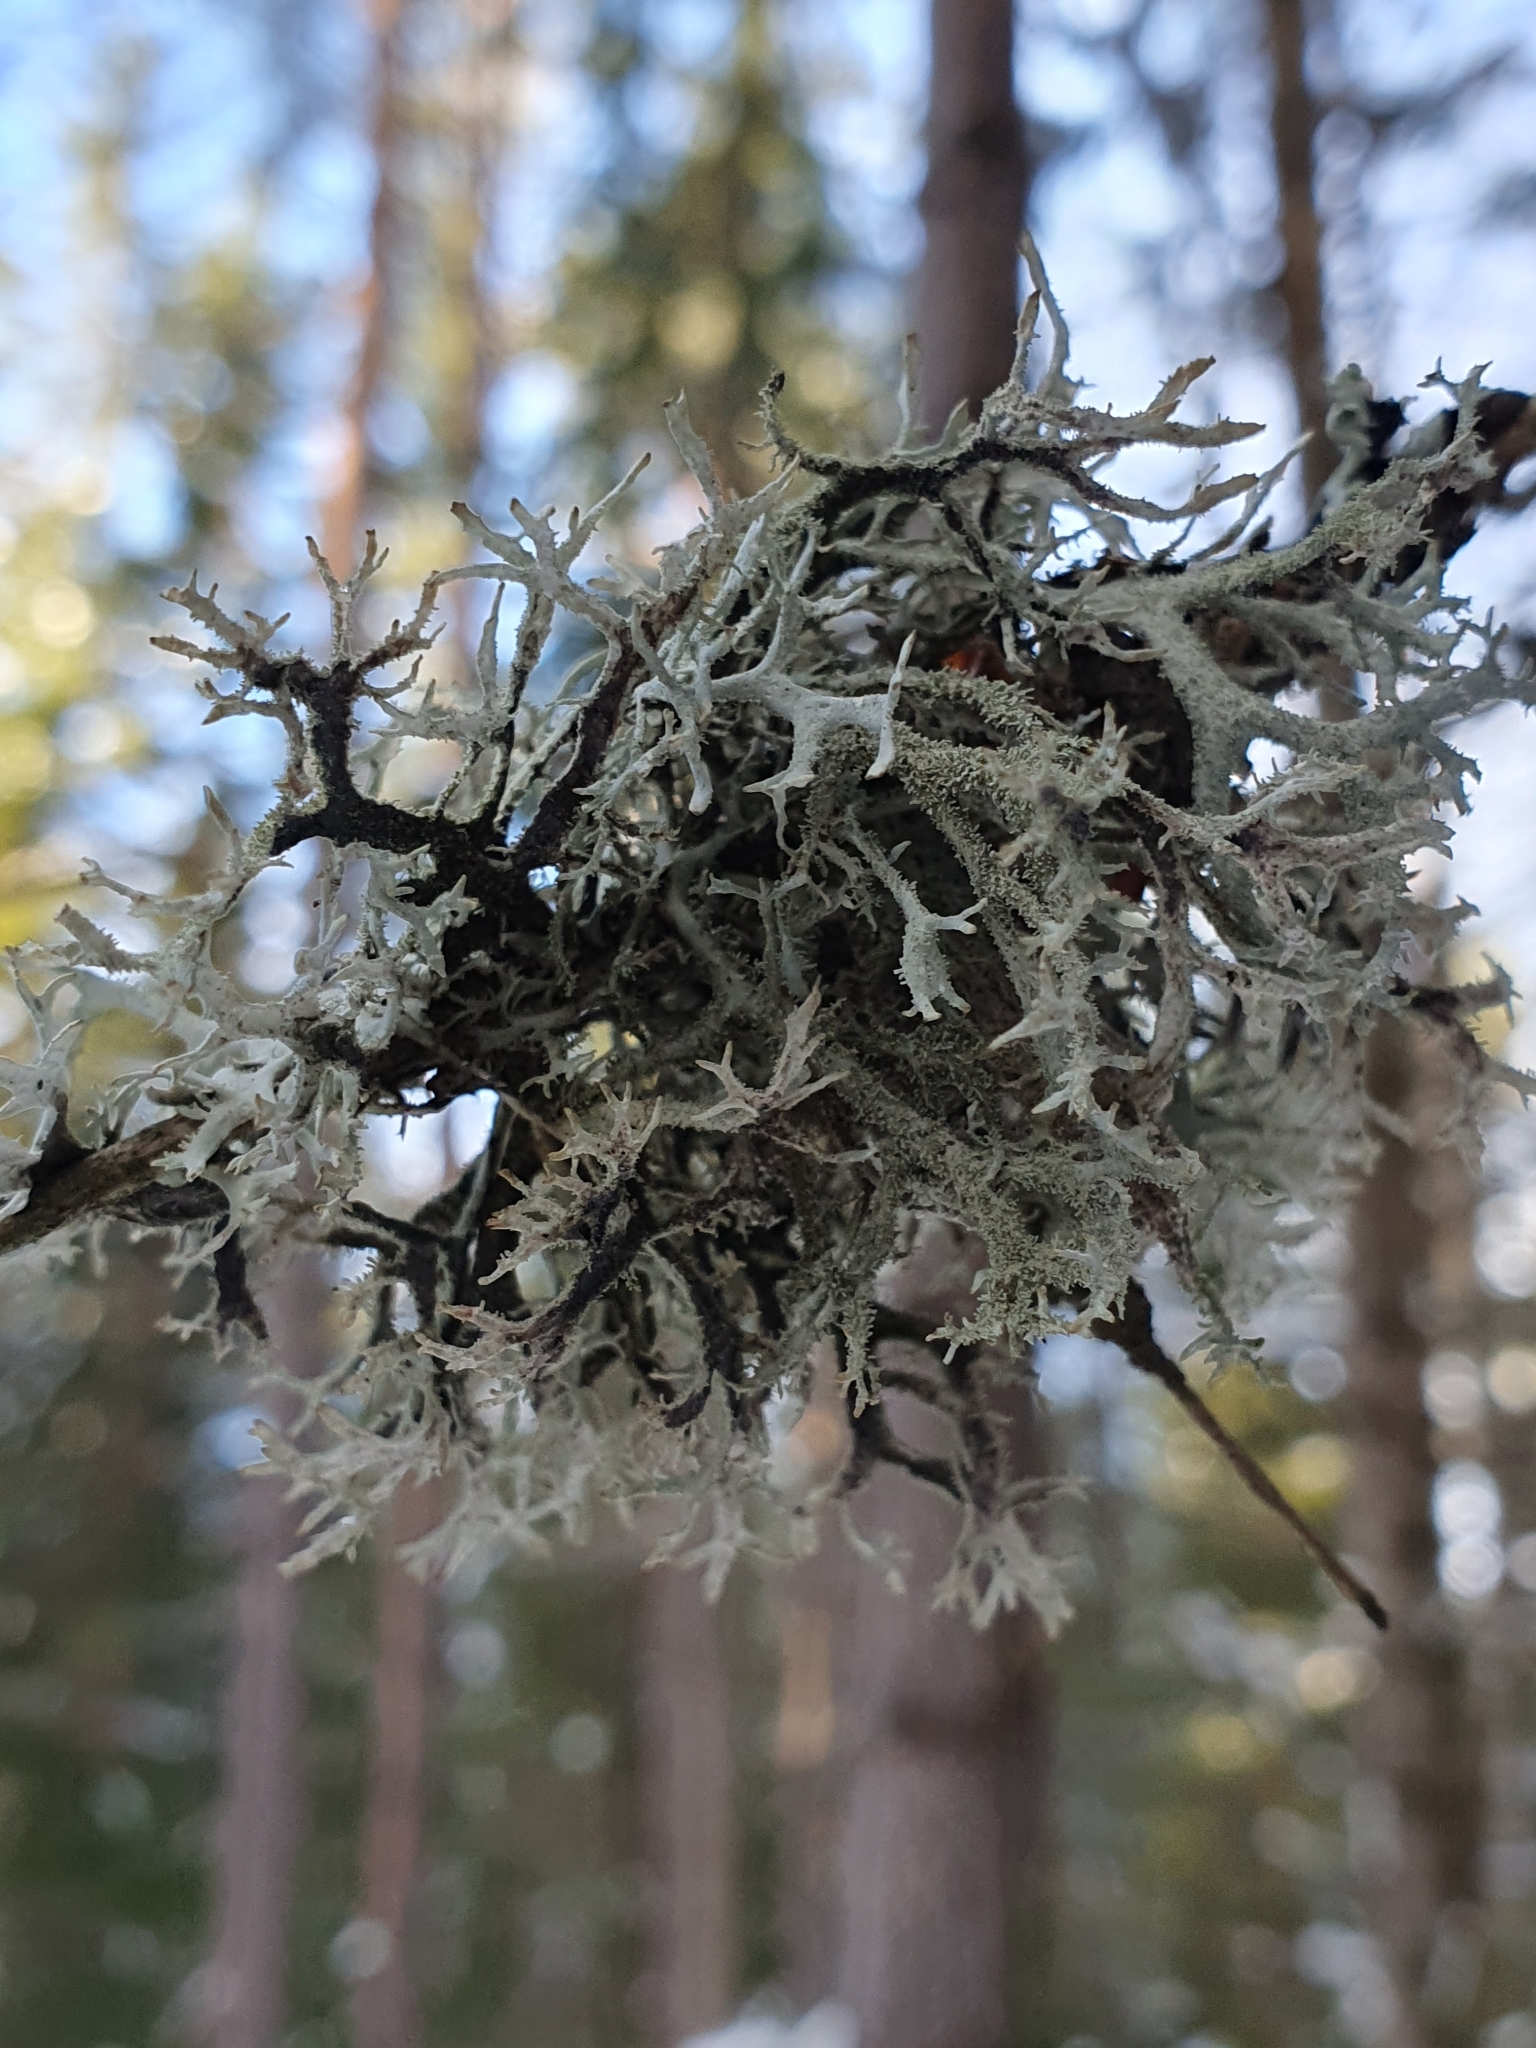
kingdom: Fungi
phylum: Ascomycota
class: Lecanoromycetes
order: Lecanorales
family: Parmeliaceae
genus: Pseudevernia
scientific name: Pseudevernia furfuracea
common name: Tree moss
